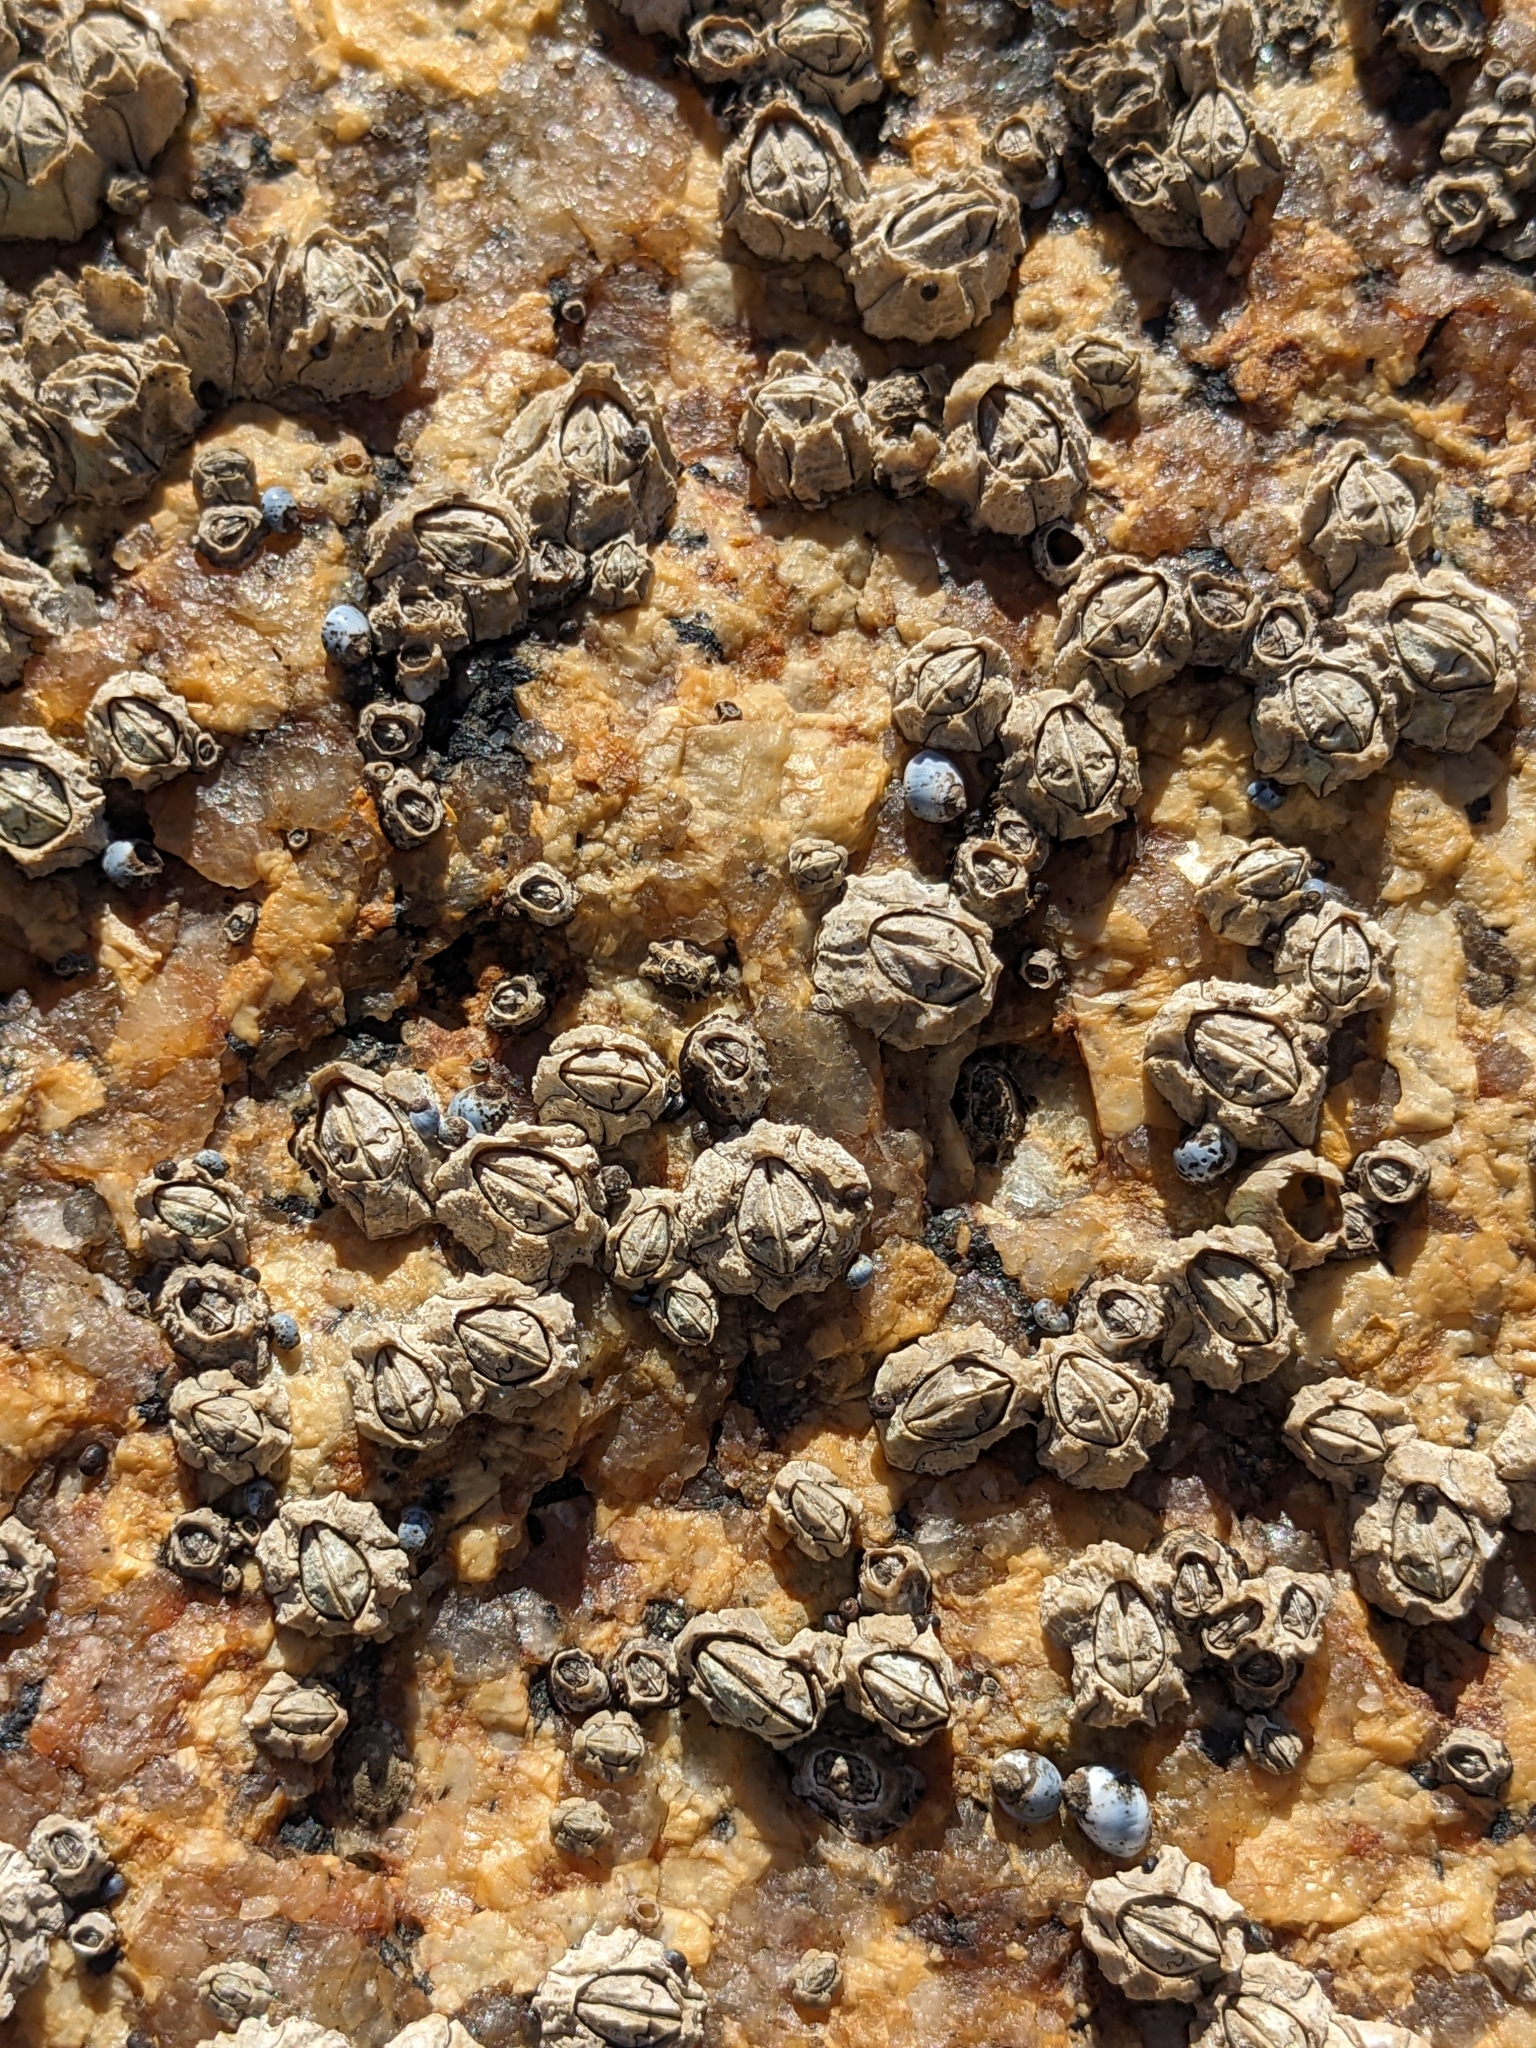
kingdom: Animalia
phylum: Arthropoda
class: Maxillopoda
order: Sessilia
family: Chthamalidae
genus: Chthamalus
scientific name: Chthamalus antennatus
